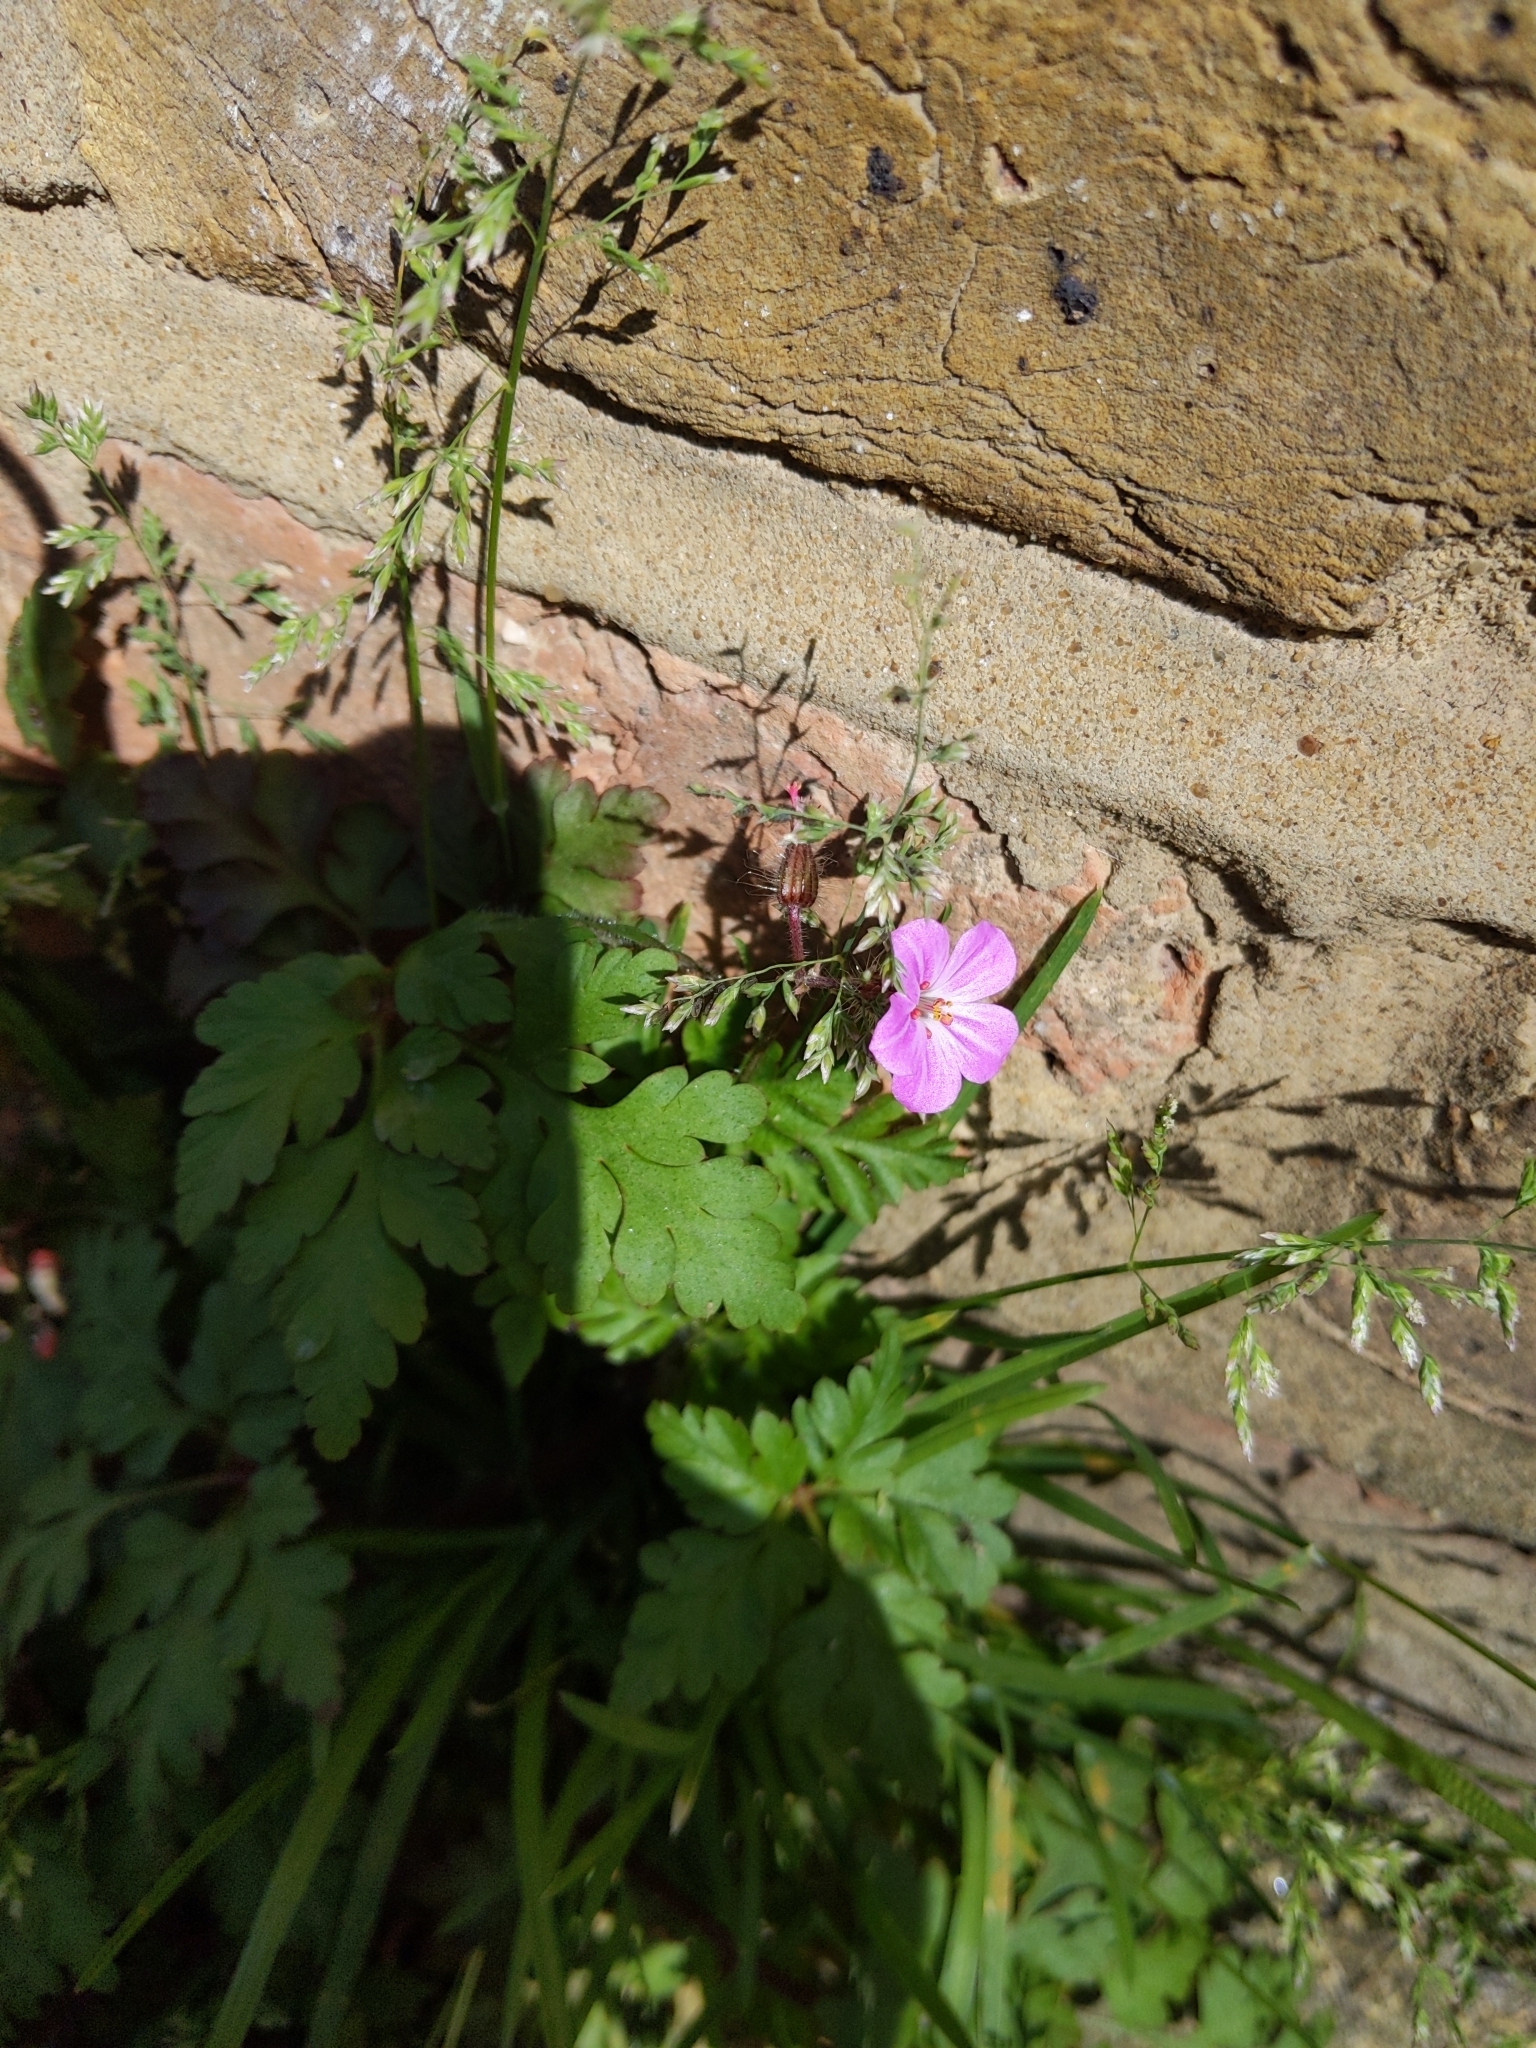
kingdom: Plantae
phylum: Tracheophyta
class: Magnoliopsida
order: Geraniales
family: Geraniaceae
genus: Geranium
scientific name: Geranium robertianum
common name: Herb-robert
